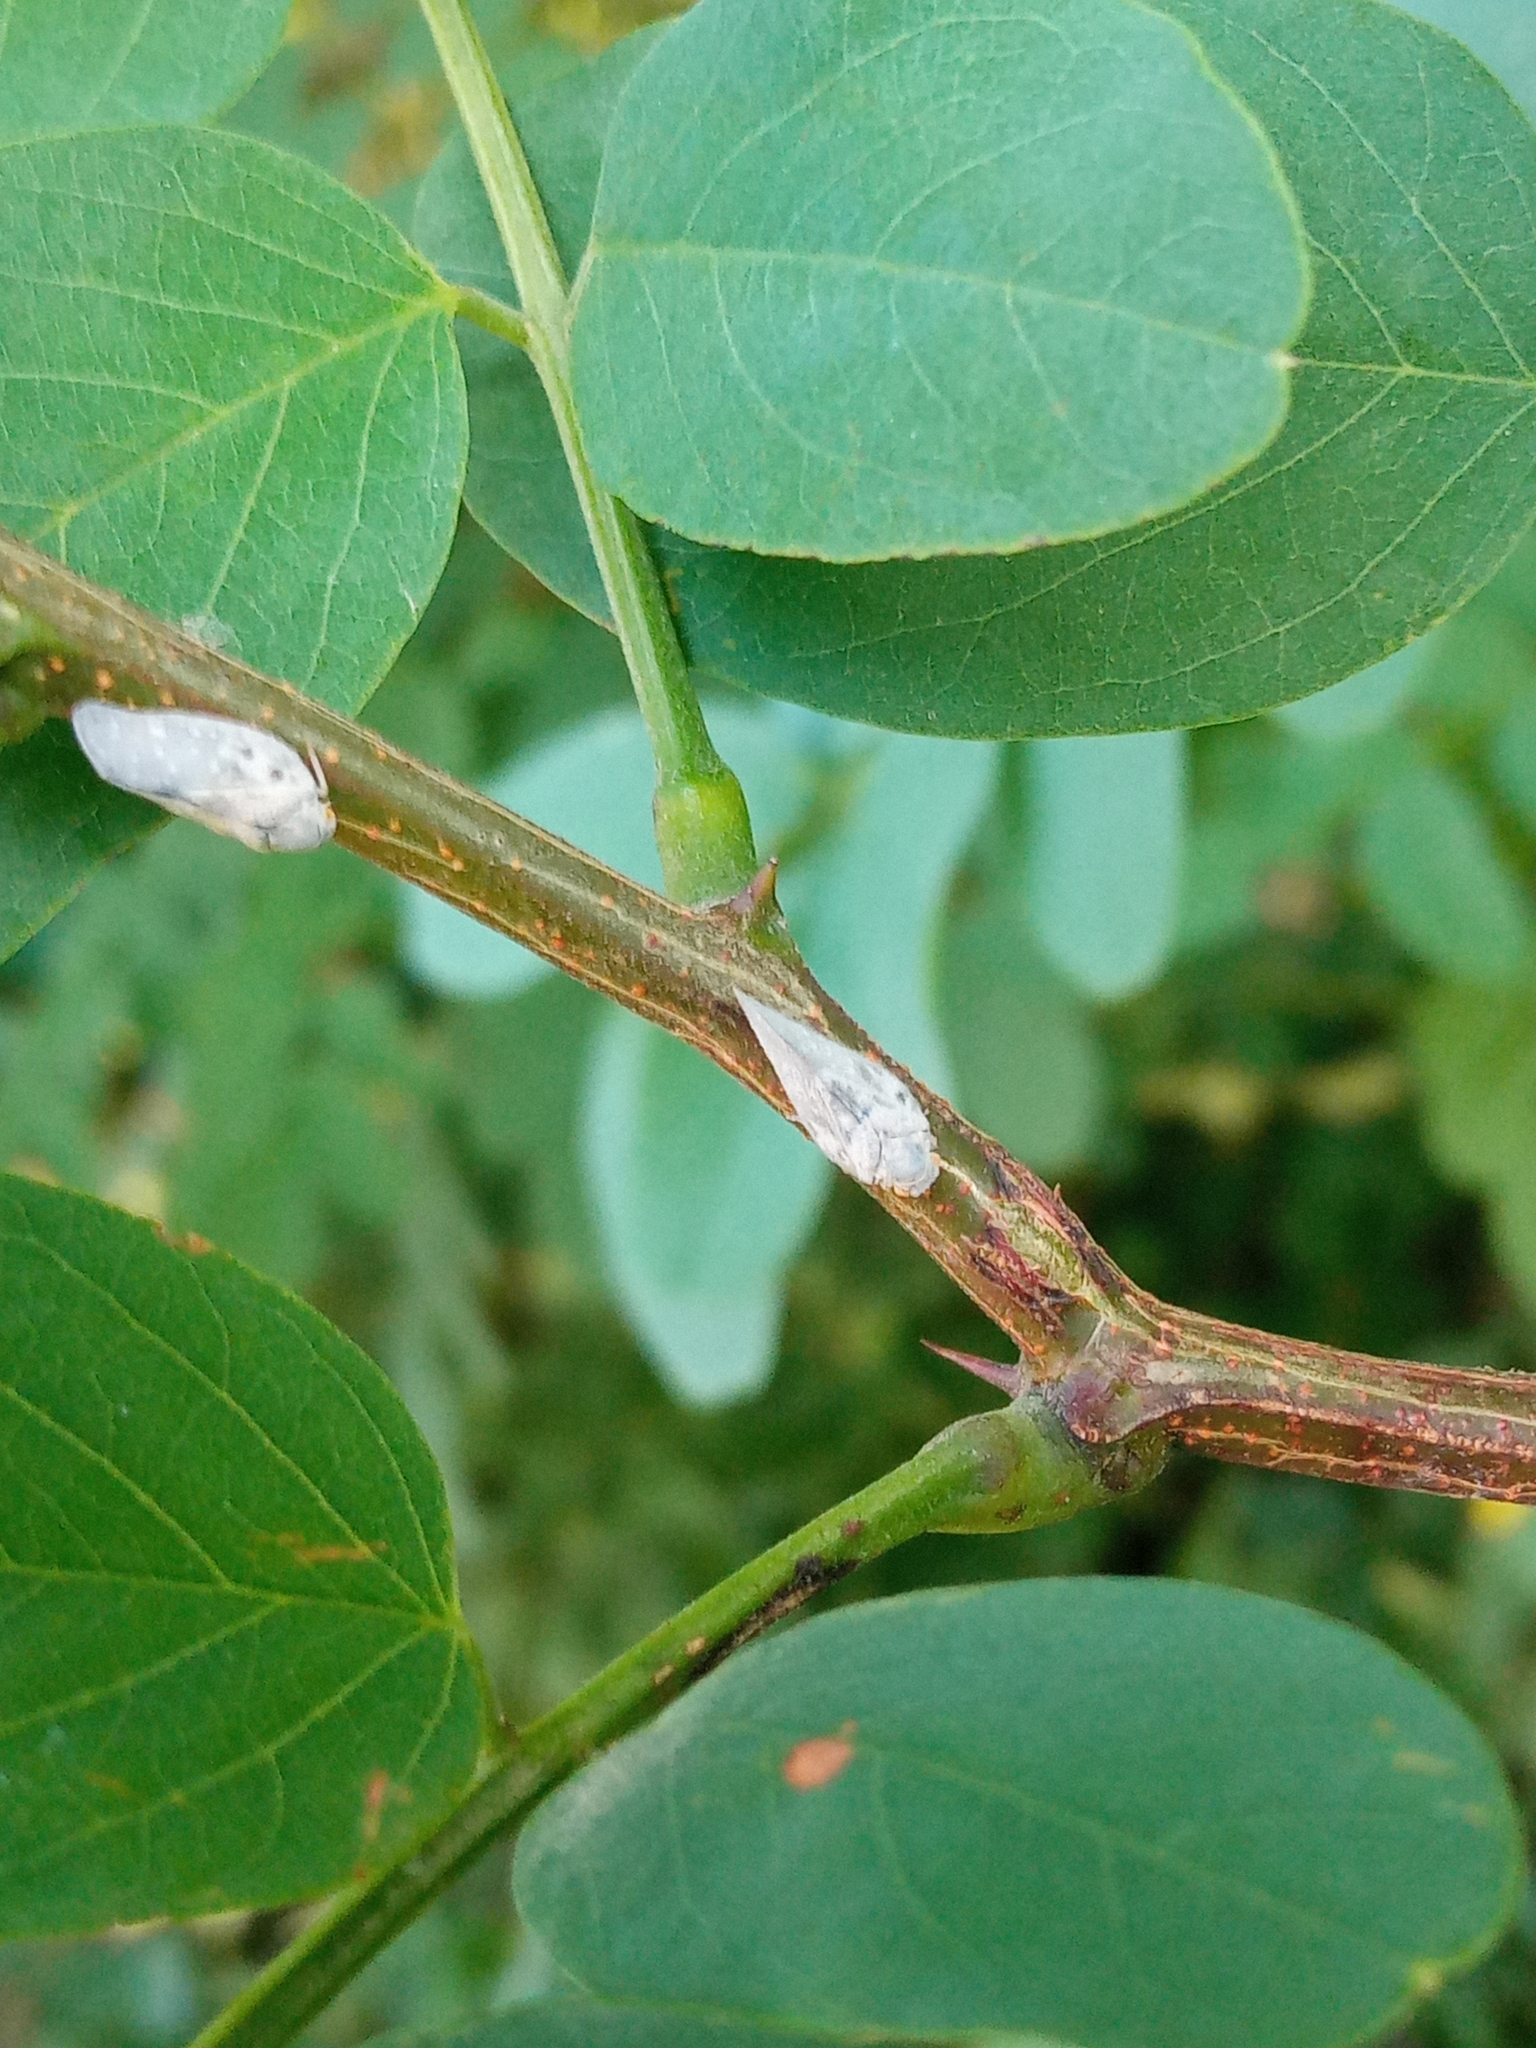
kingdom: Animalia
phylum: Arthropoda
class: Insecta
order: Hemiptera
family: Flatidae
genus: Metcalfa
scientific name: Metcalfa pruinosa
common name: Citrus flatid planthopper
